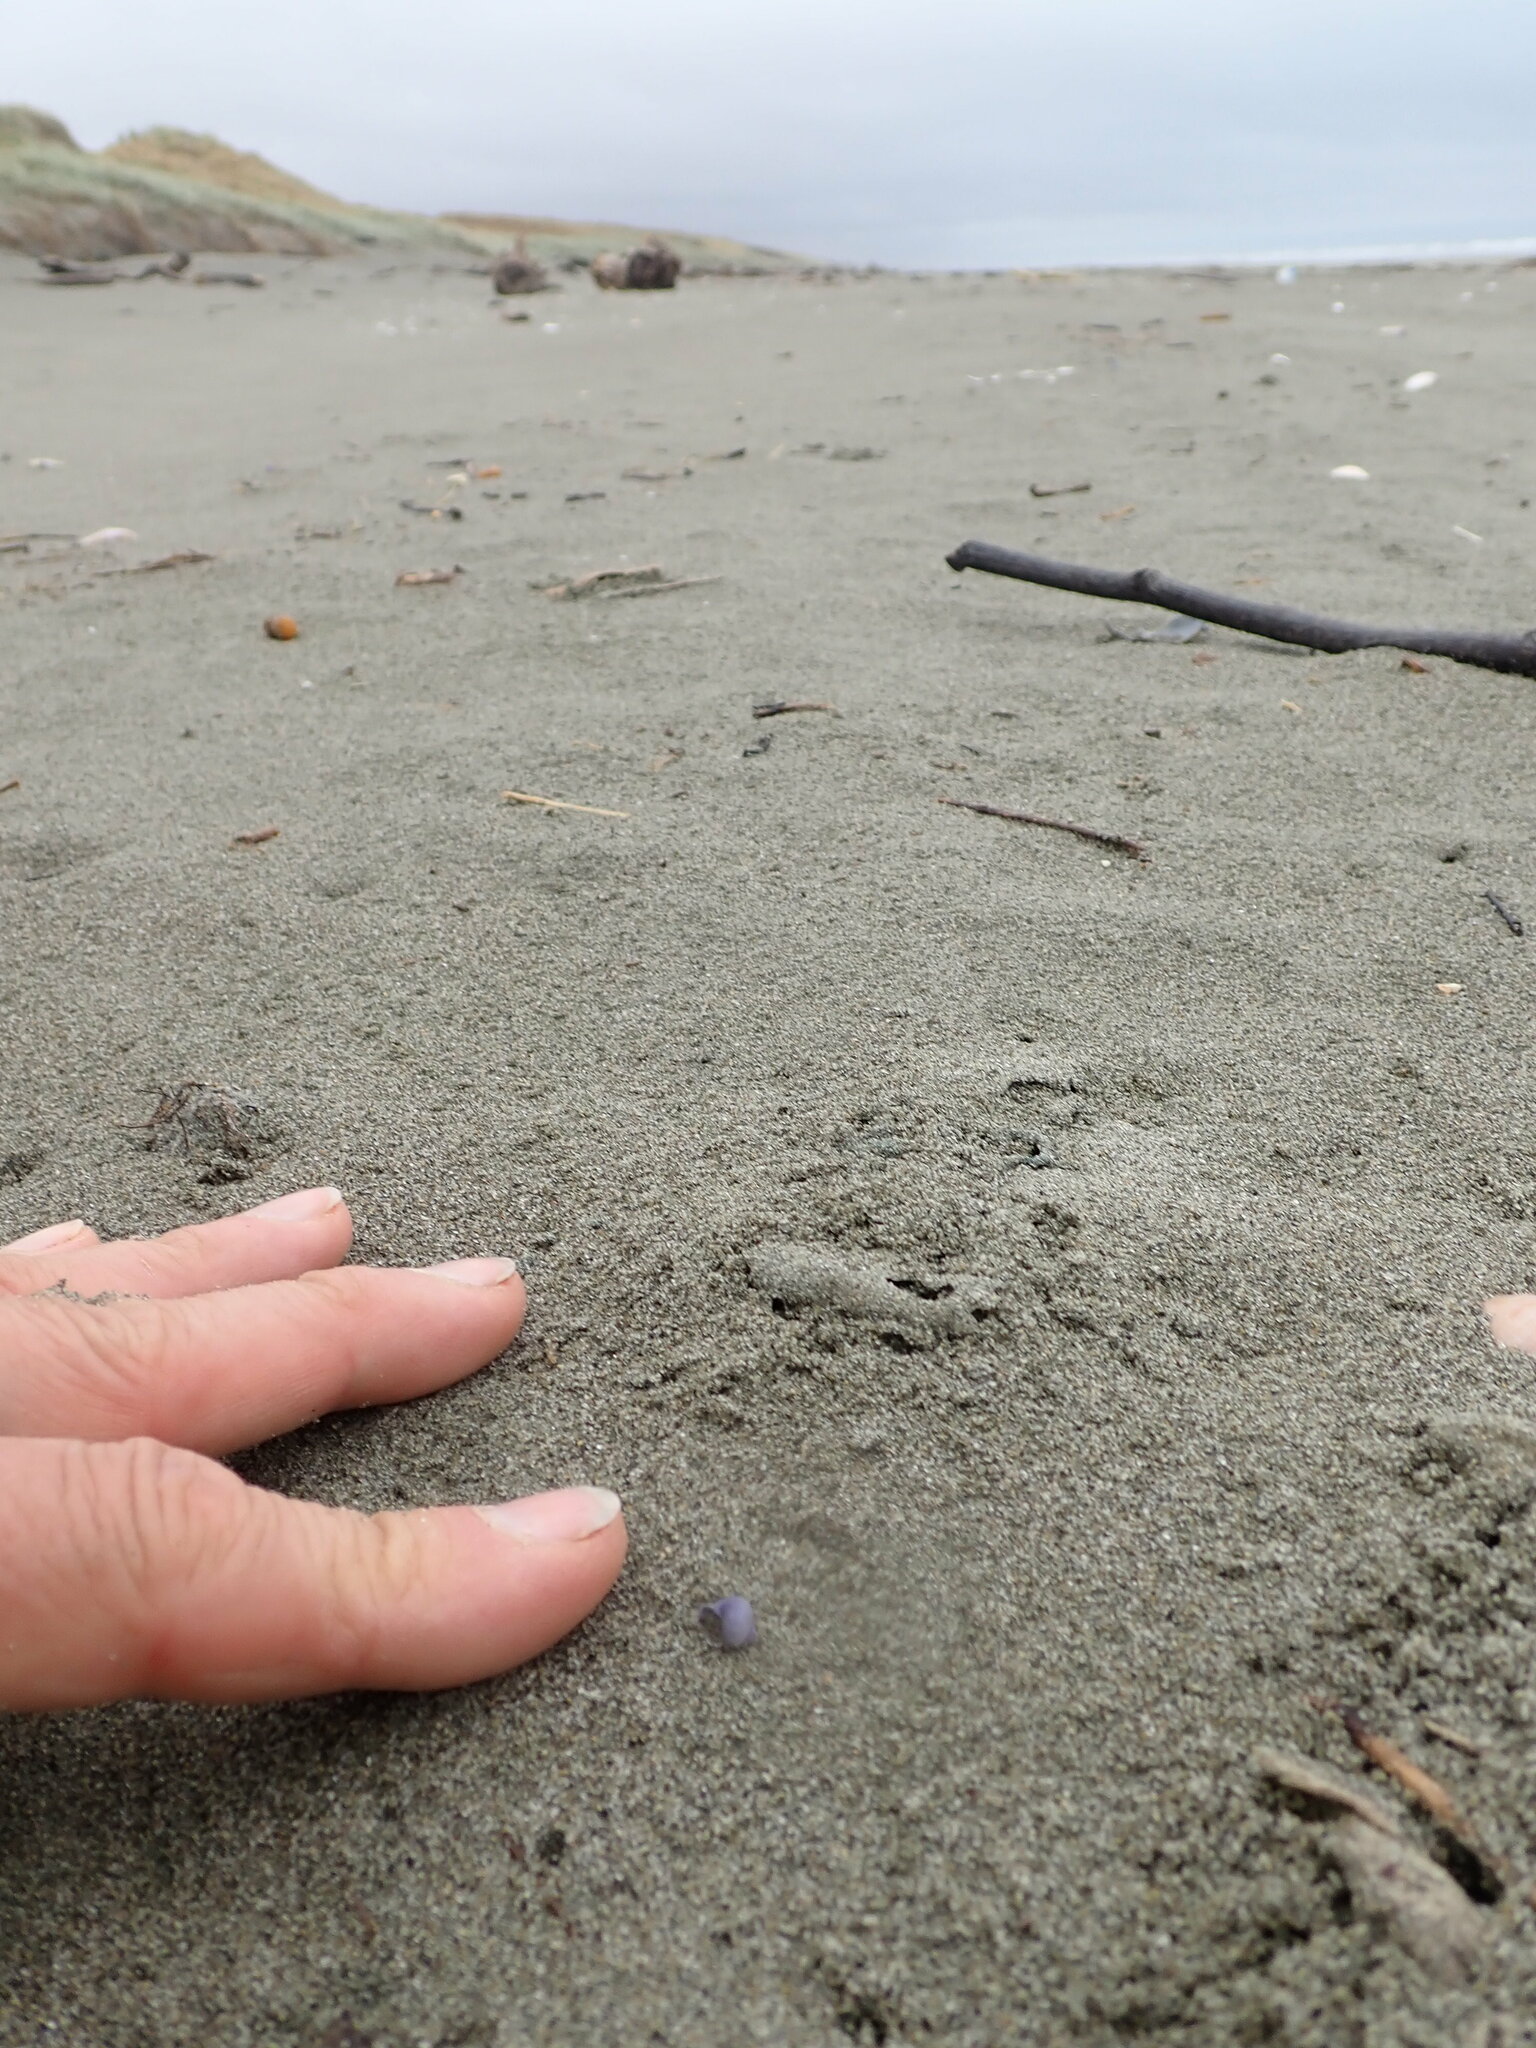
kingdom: Animalia
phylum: Mollusca
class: Gastropoda
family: Epitoniidae
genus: Janthina
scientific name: Janthina exigua
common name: Dwarf janthina
